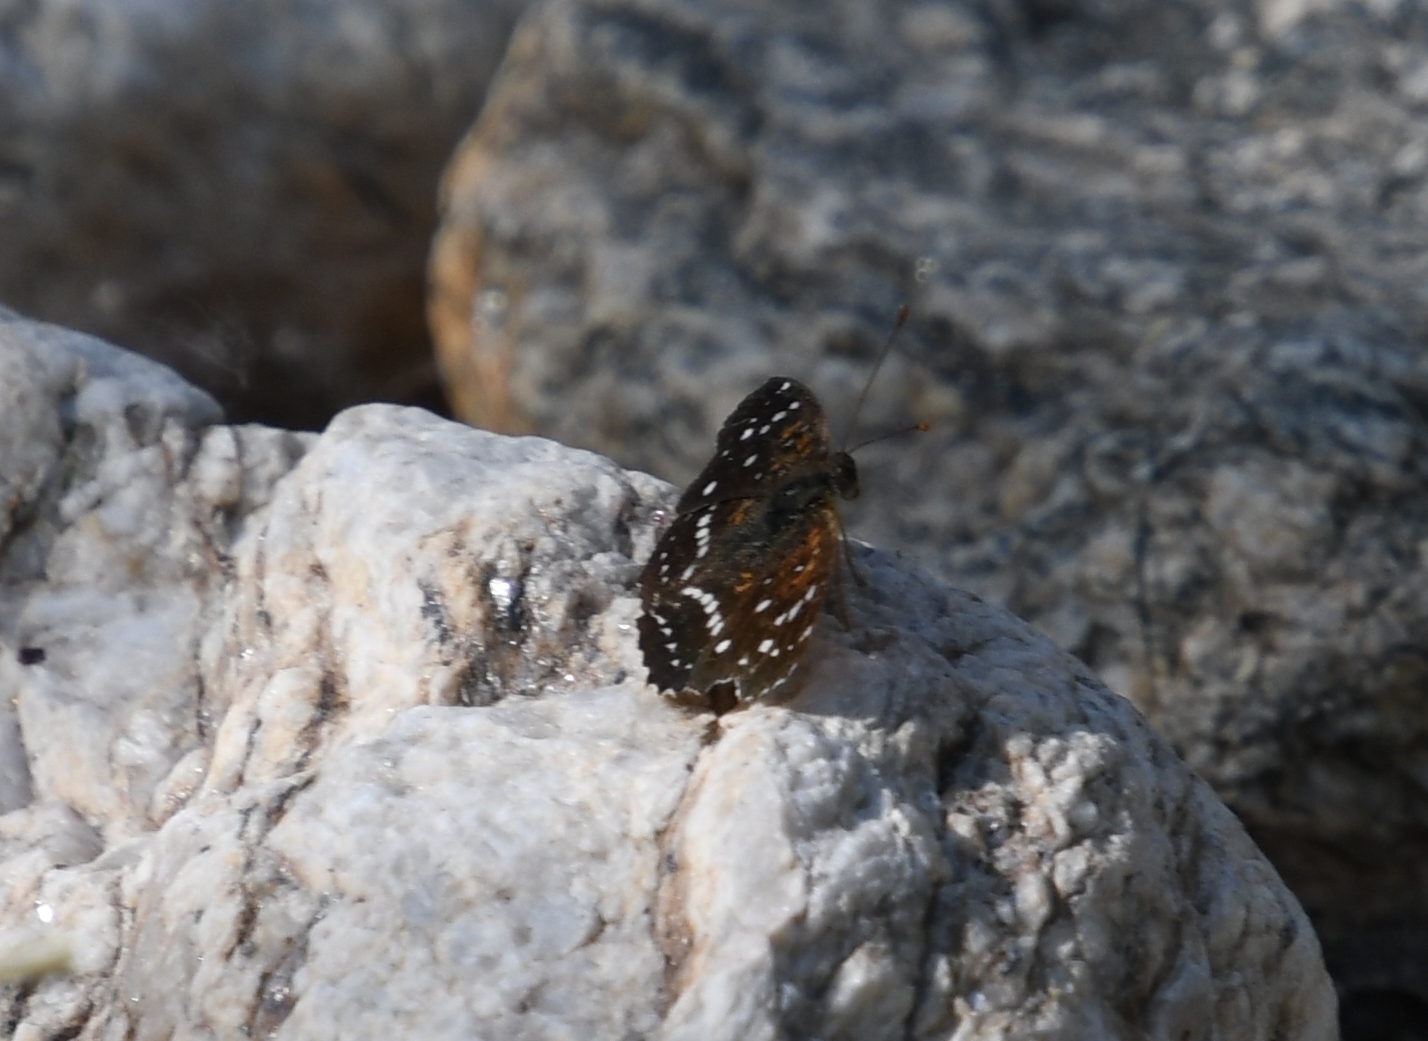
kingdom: Animalia
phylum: Arthropoda
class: Insecta
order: Lepidoptera
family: Nymphalidae
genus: Anthanassa
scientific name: Anthanassa texana
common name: Texan crescent
